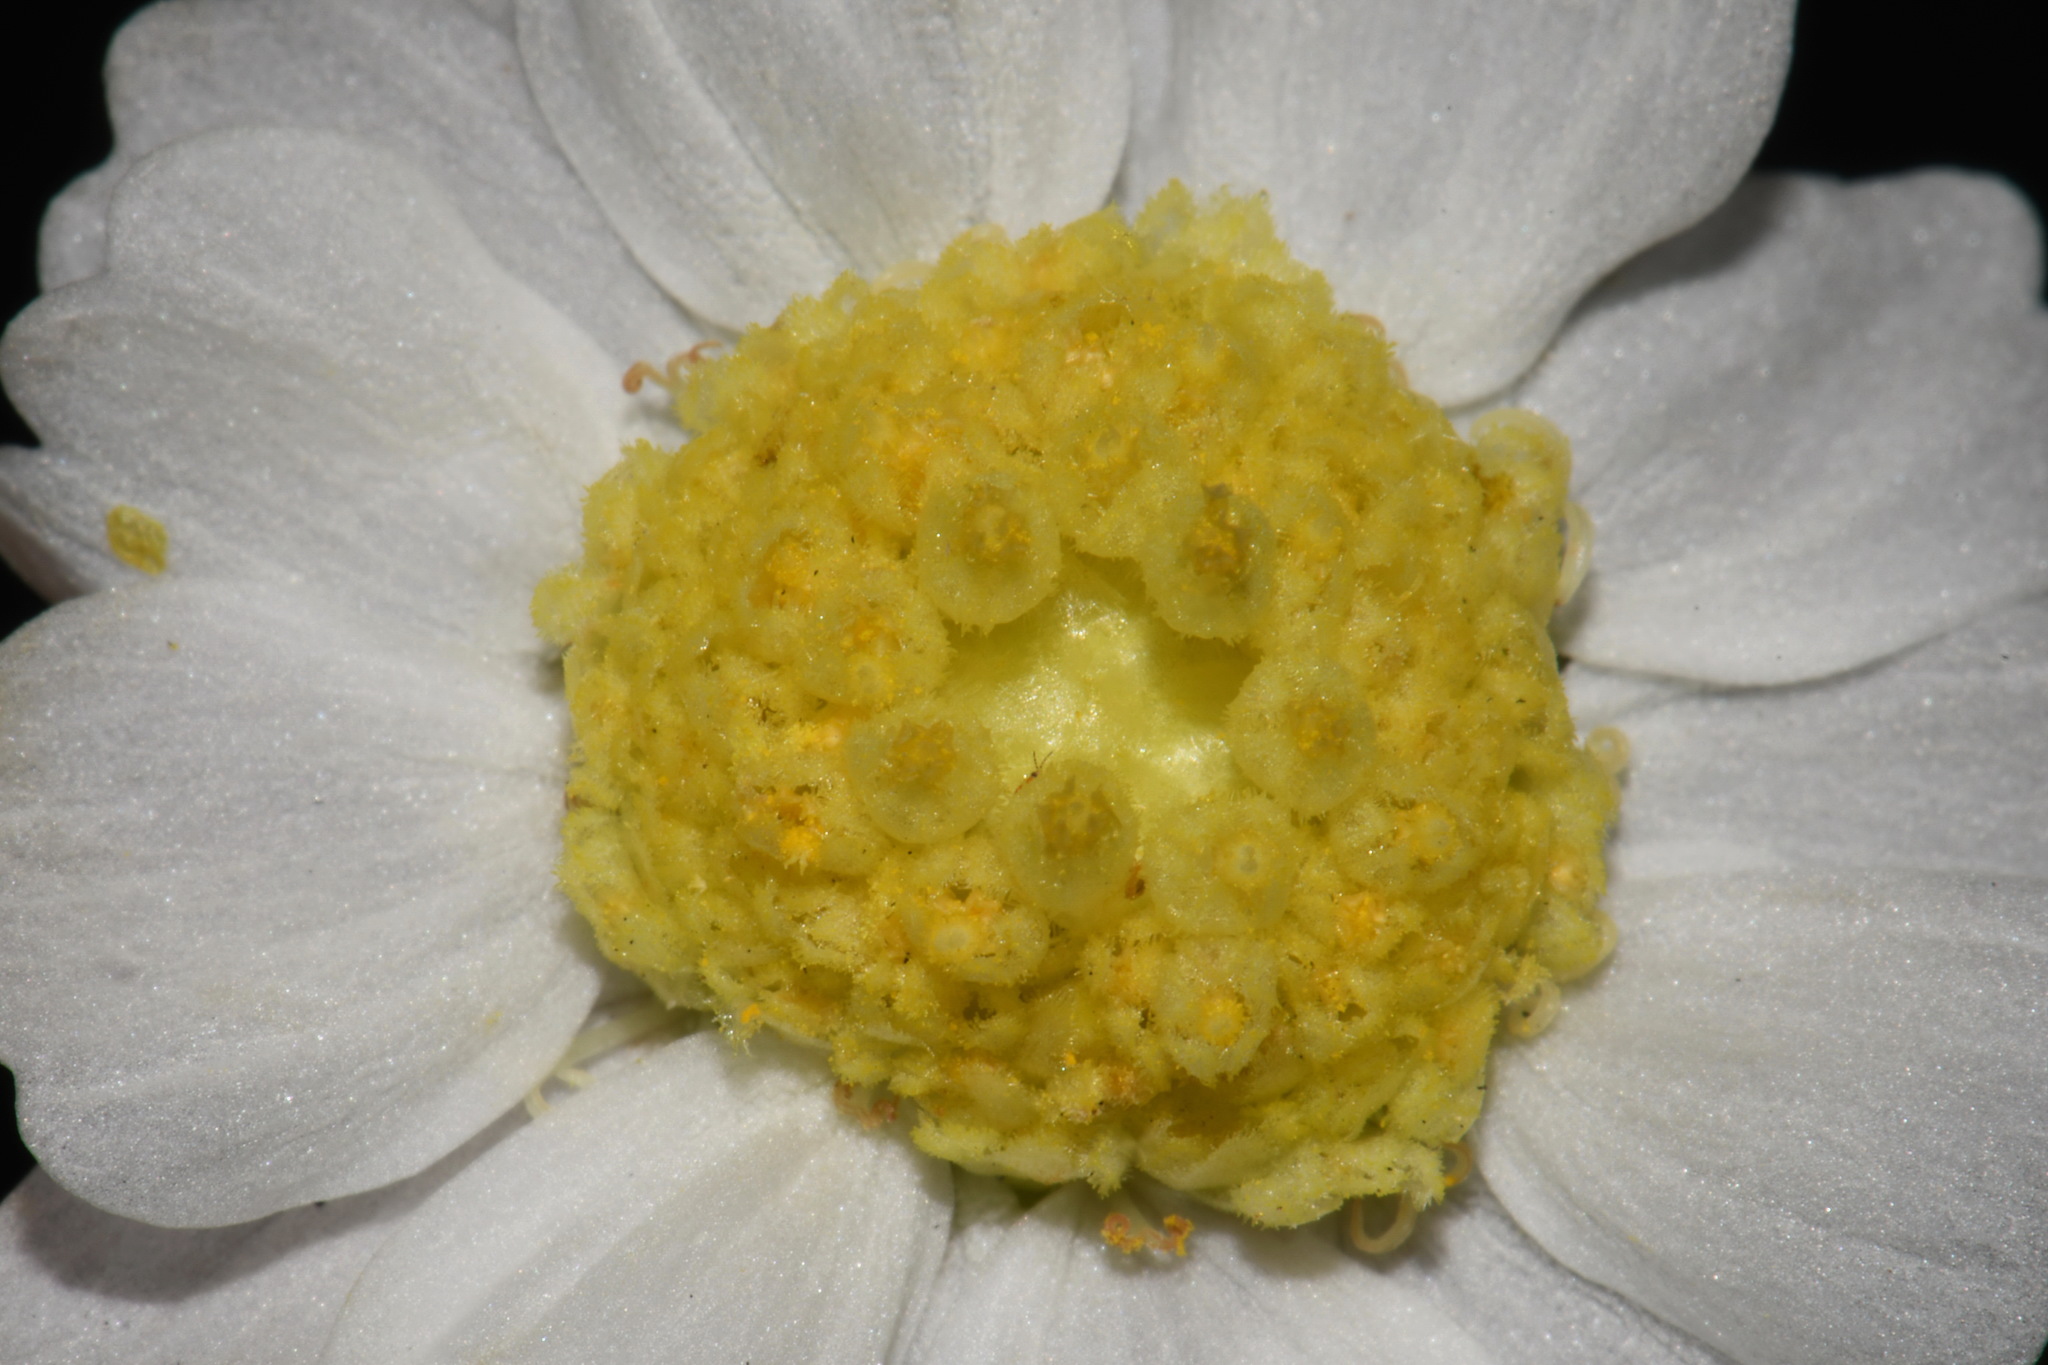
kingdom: Plantae
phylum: Tracheophyta
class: Magnoliopsida
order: Asterales
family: Asteraceae
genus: Polymnia
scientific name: Polymnia johnbeckii
